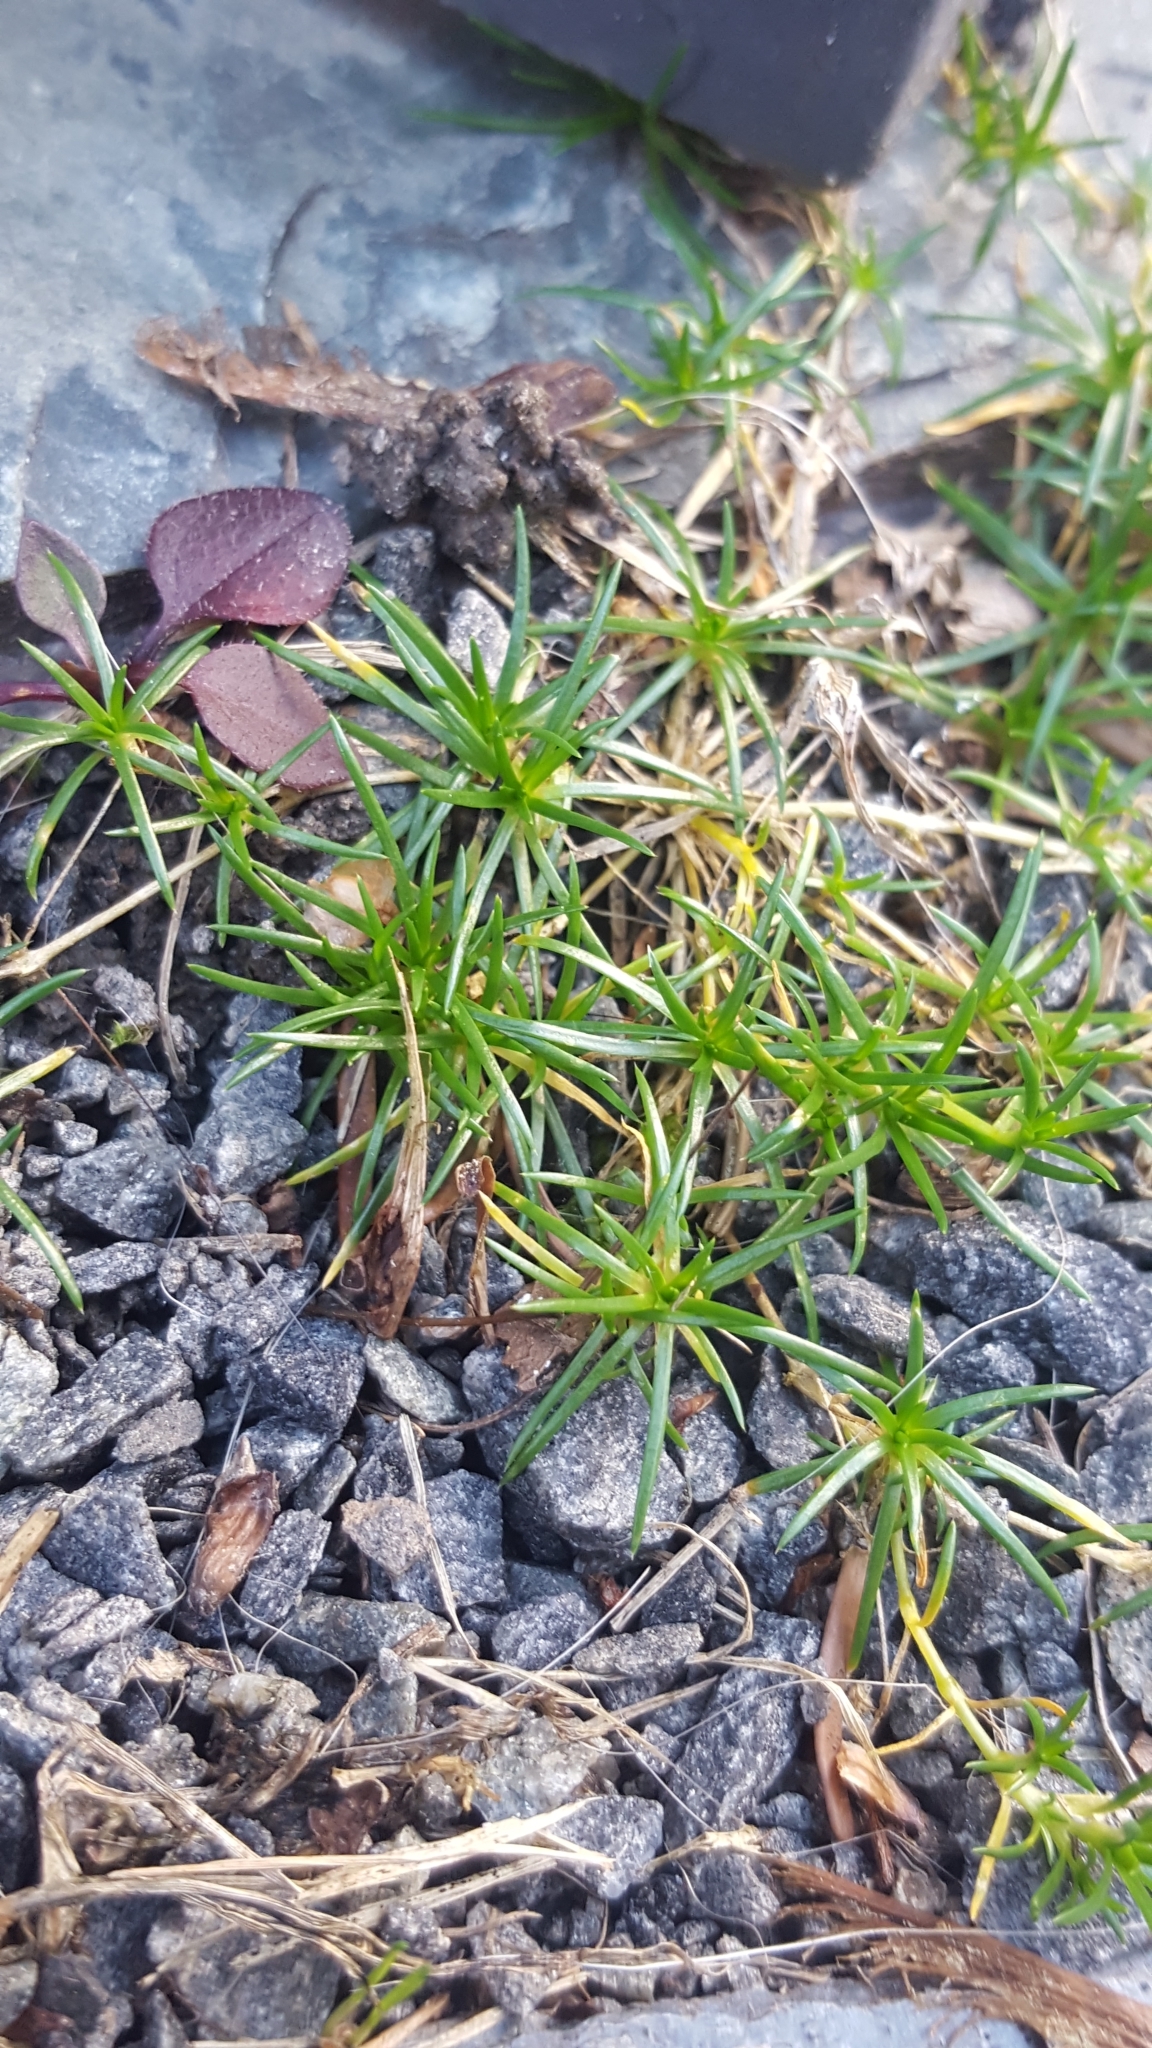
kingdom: Plantae
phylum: Tracheophyta
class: Magnoliopsida
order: Caryophyllales
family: Caryophyllaceae
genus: Sagina
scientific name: Sagina procumbens
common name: Procumbent pearlwort
